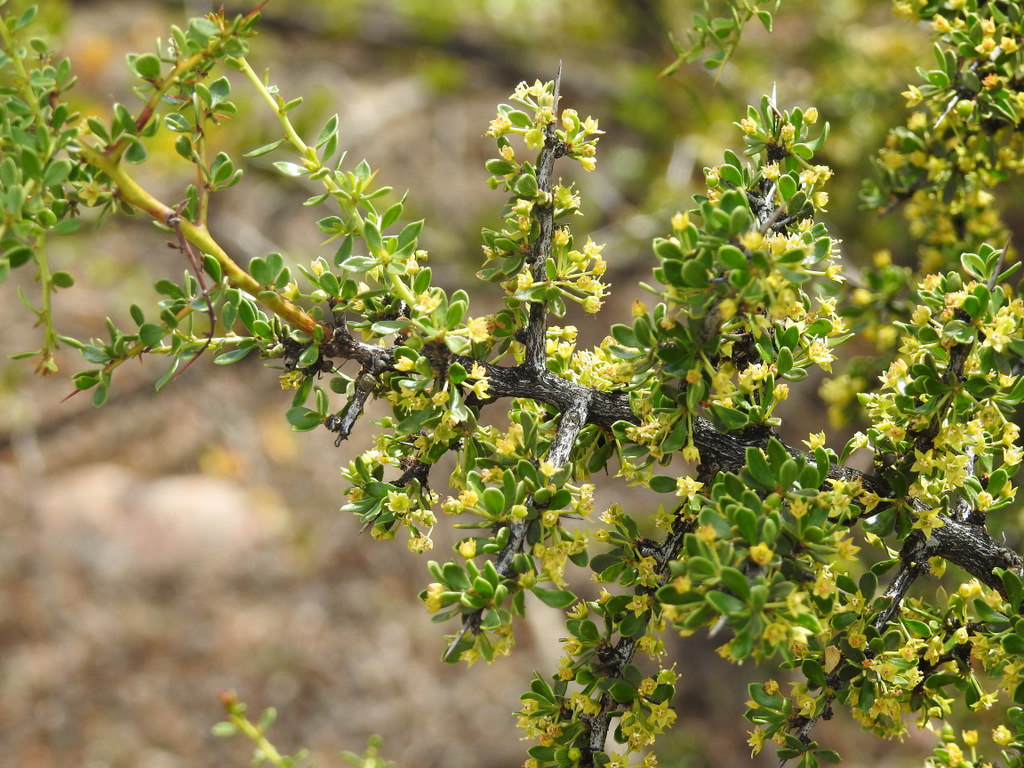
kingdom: Plantae
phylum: Tracheophyta
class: Magnoliopsida
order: Rosales
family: Rhamnaceae
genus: Condalia
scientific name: Condalia microphylla
